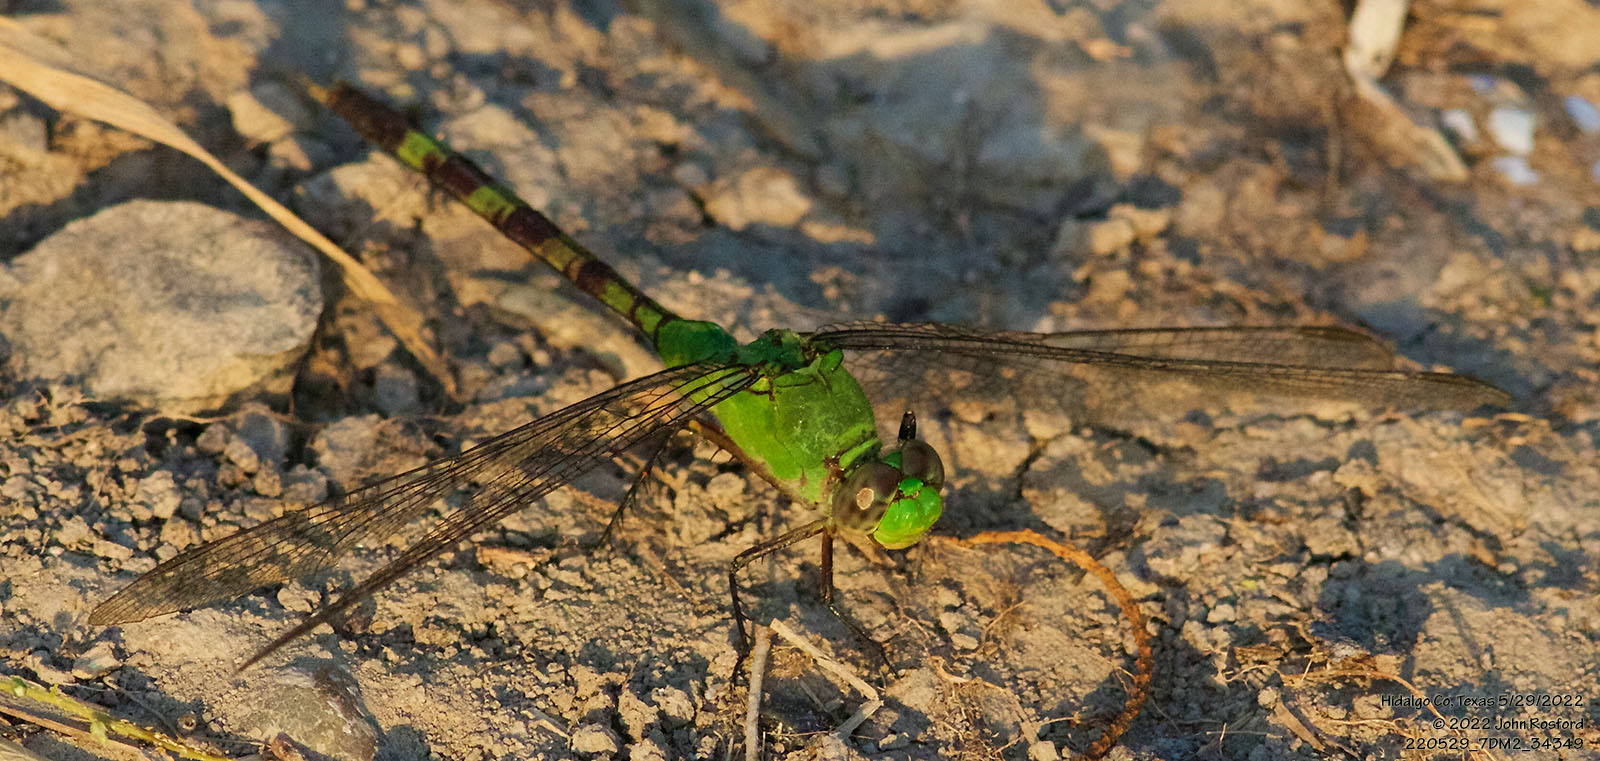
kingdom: Animalia
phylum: Arthropoda
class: Insecta
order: Odonata
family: Libellulidae
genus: Erythemis
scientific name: Erythemis vesiculosa
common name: Great pondhawk
